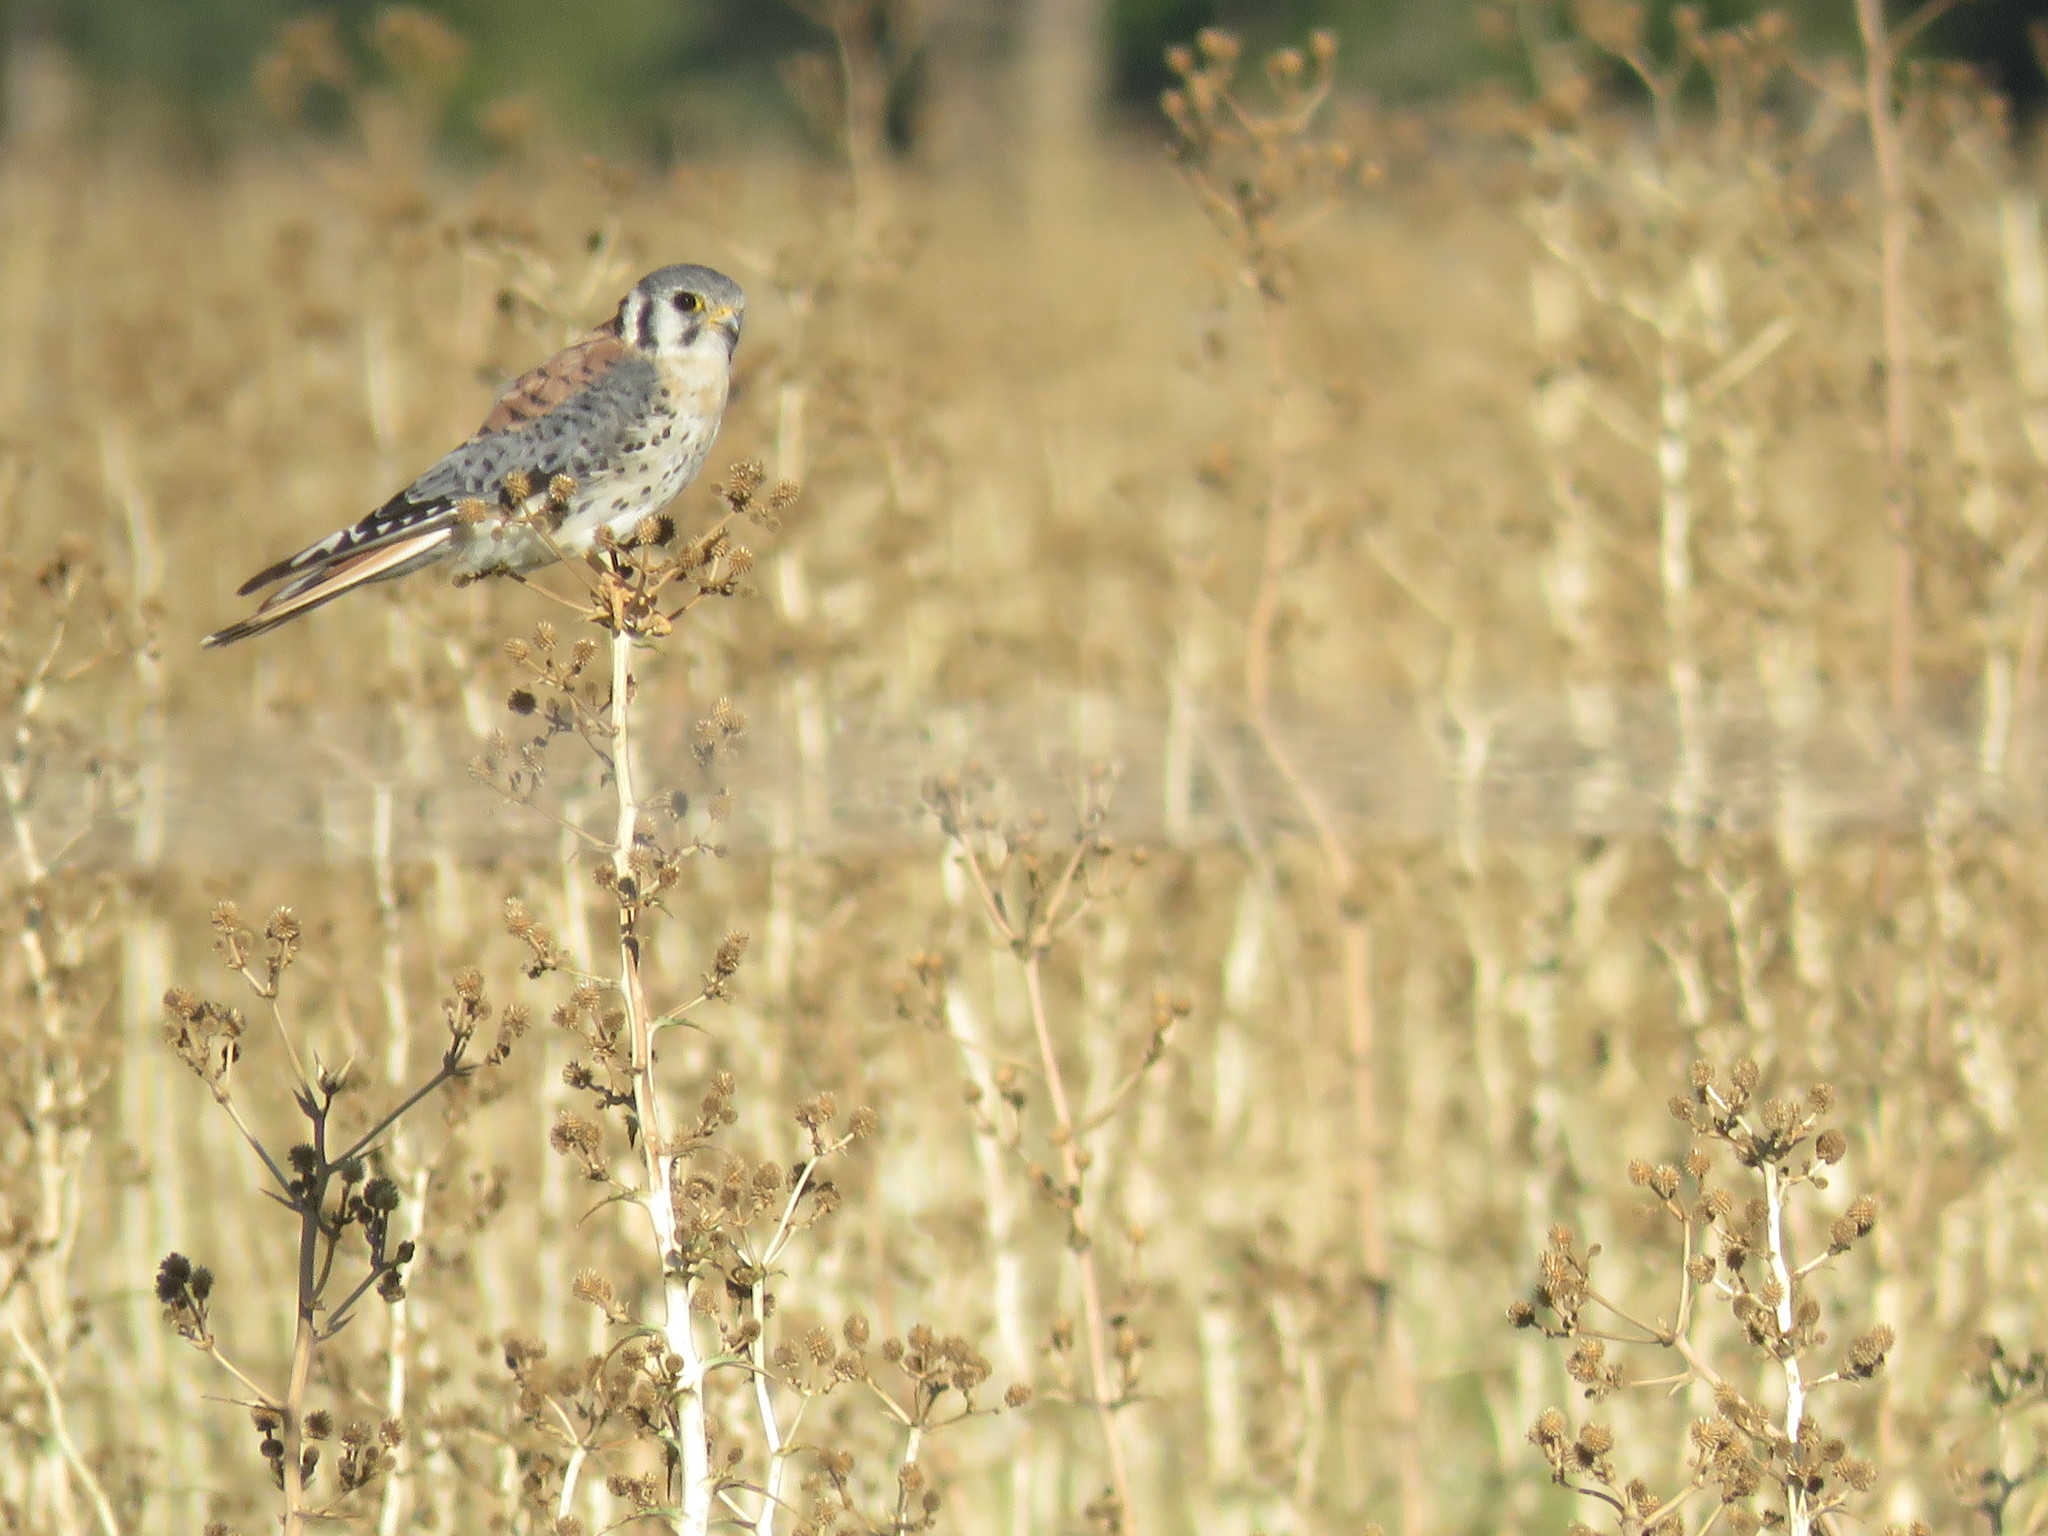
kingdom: Animalia
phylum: Chordata
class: Aves
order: Falconiformes
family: Falconidae
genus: Falco
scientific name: Falco sparverius
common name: American kestrel
